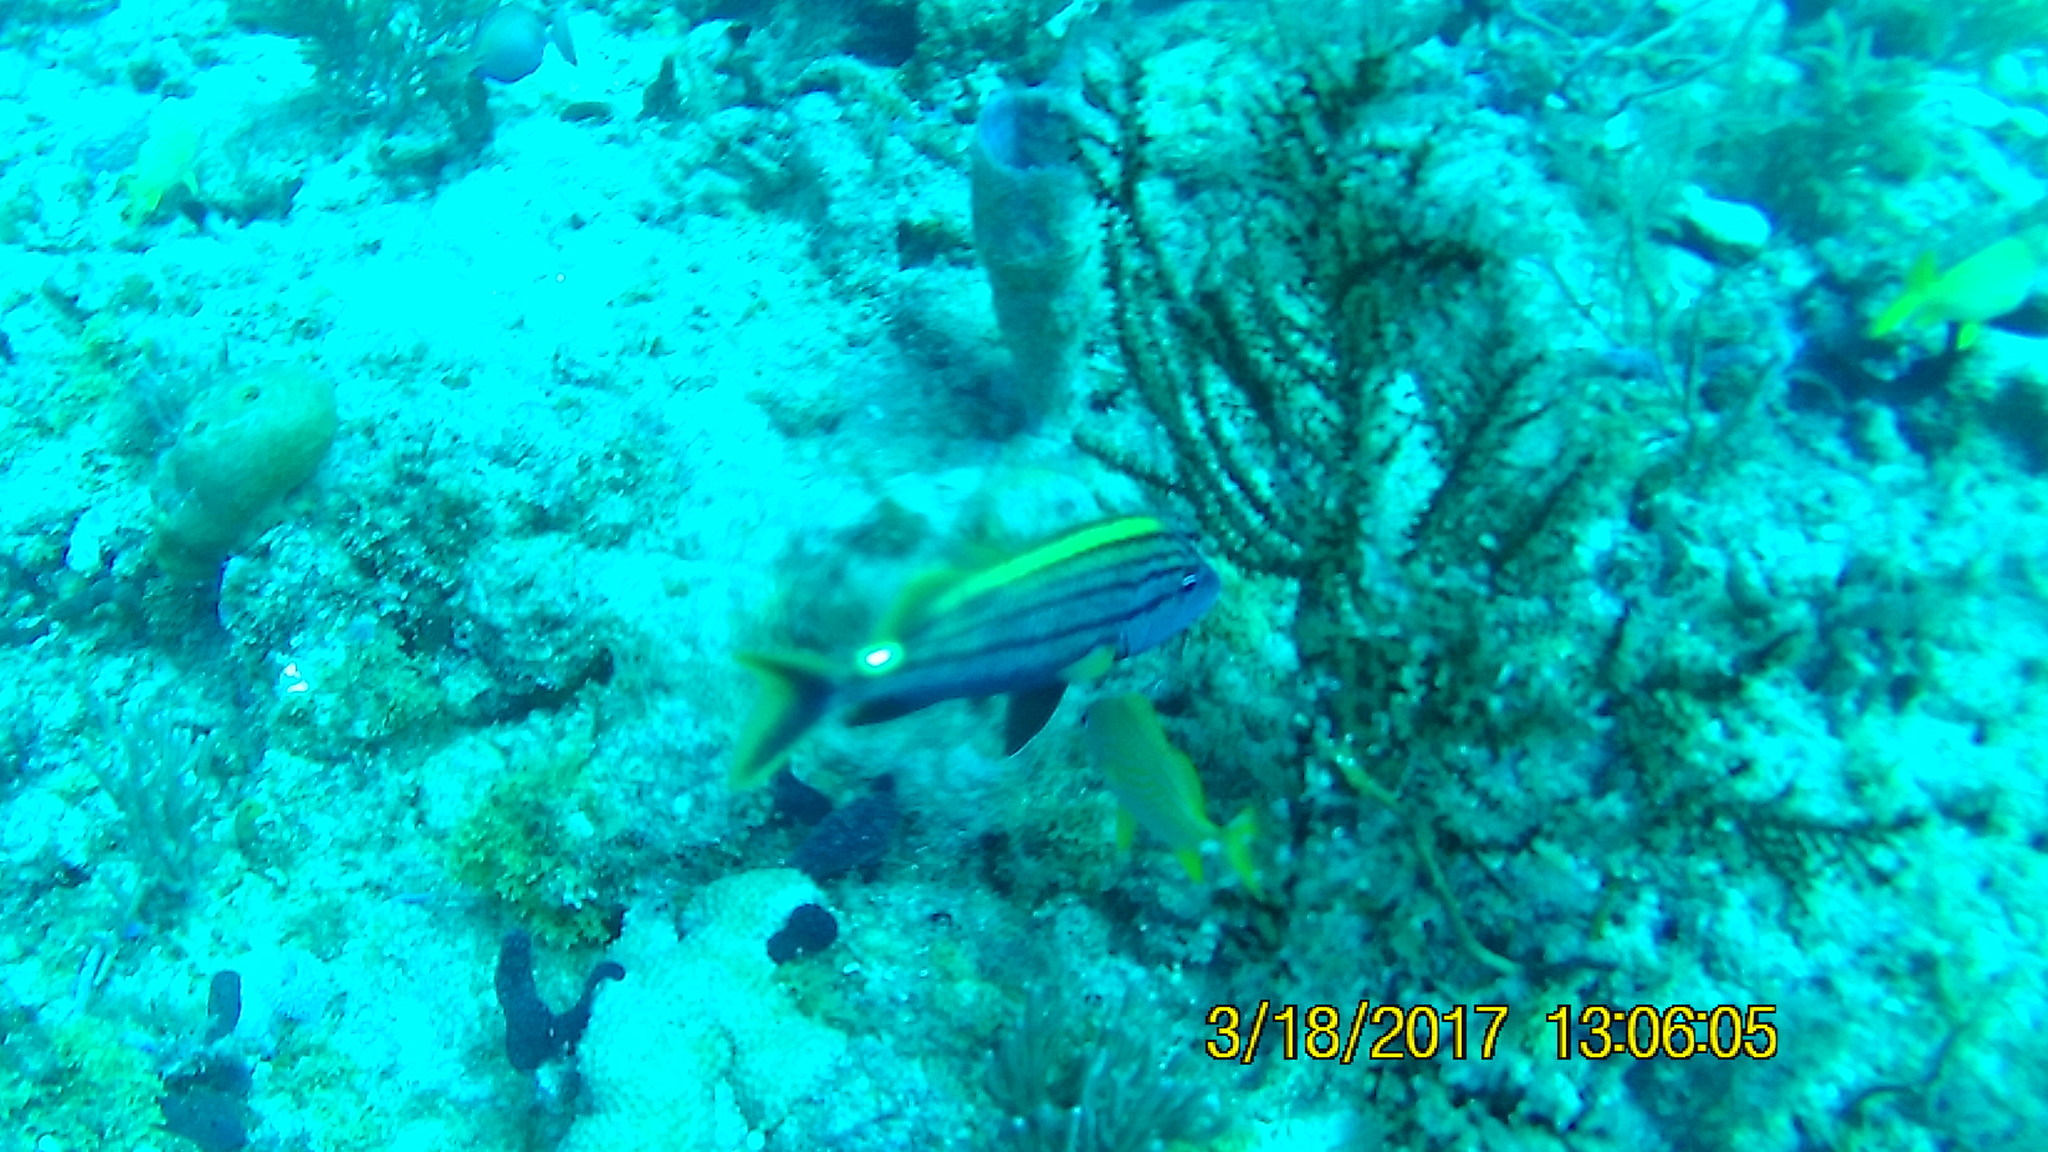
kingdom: Animalia
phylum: Chordata
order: Perciformes
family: Haemulidae
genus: Haemulon
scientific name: Haemulon macrostomum
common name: Spanish grunt
